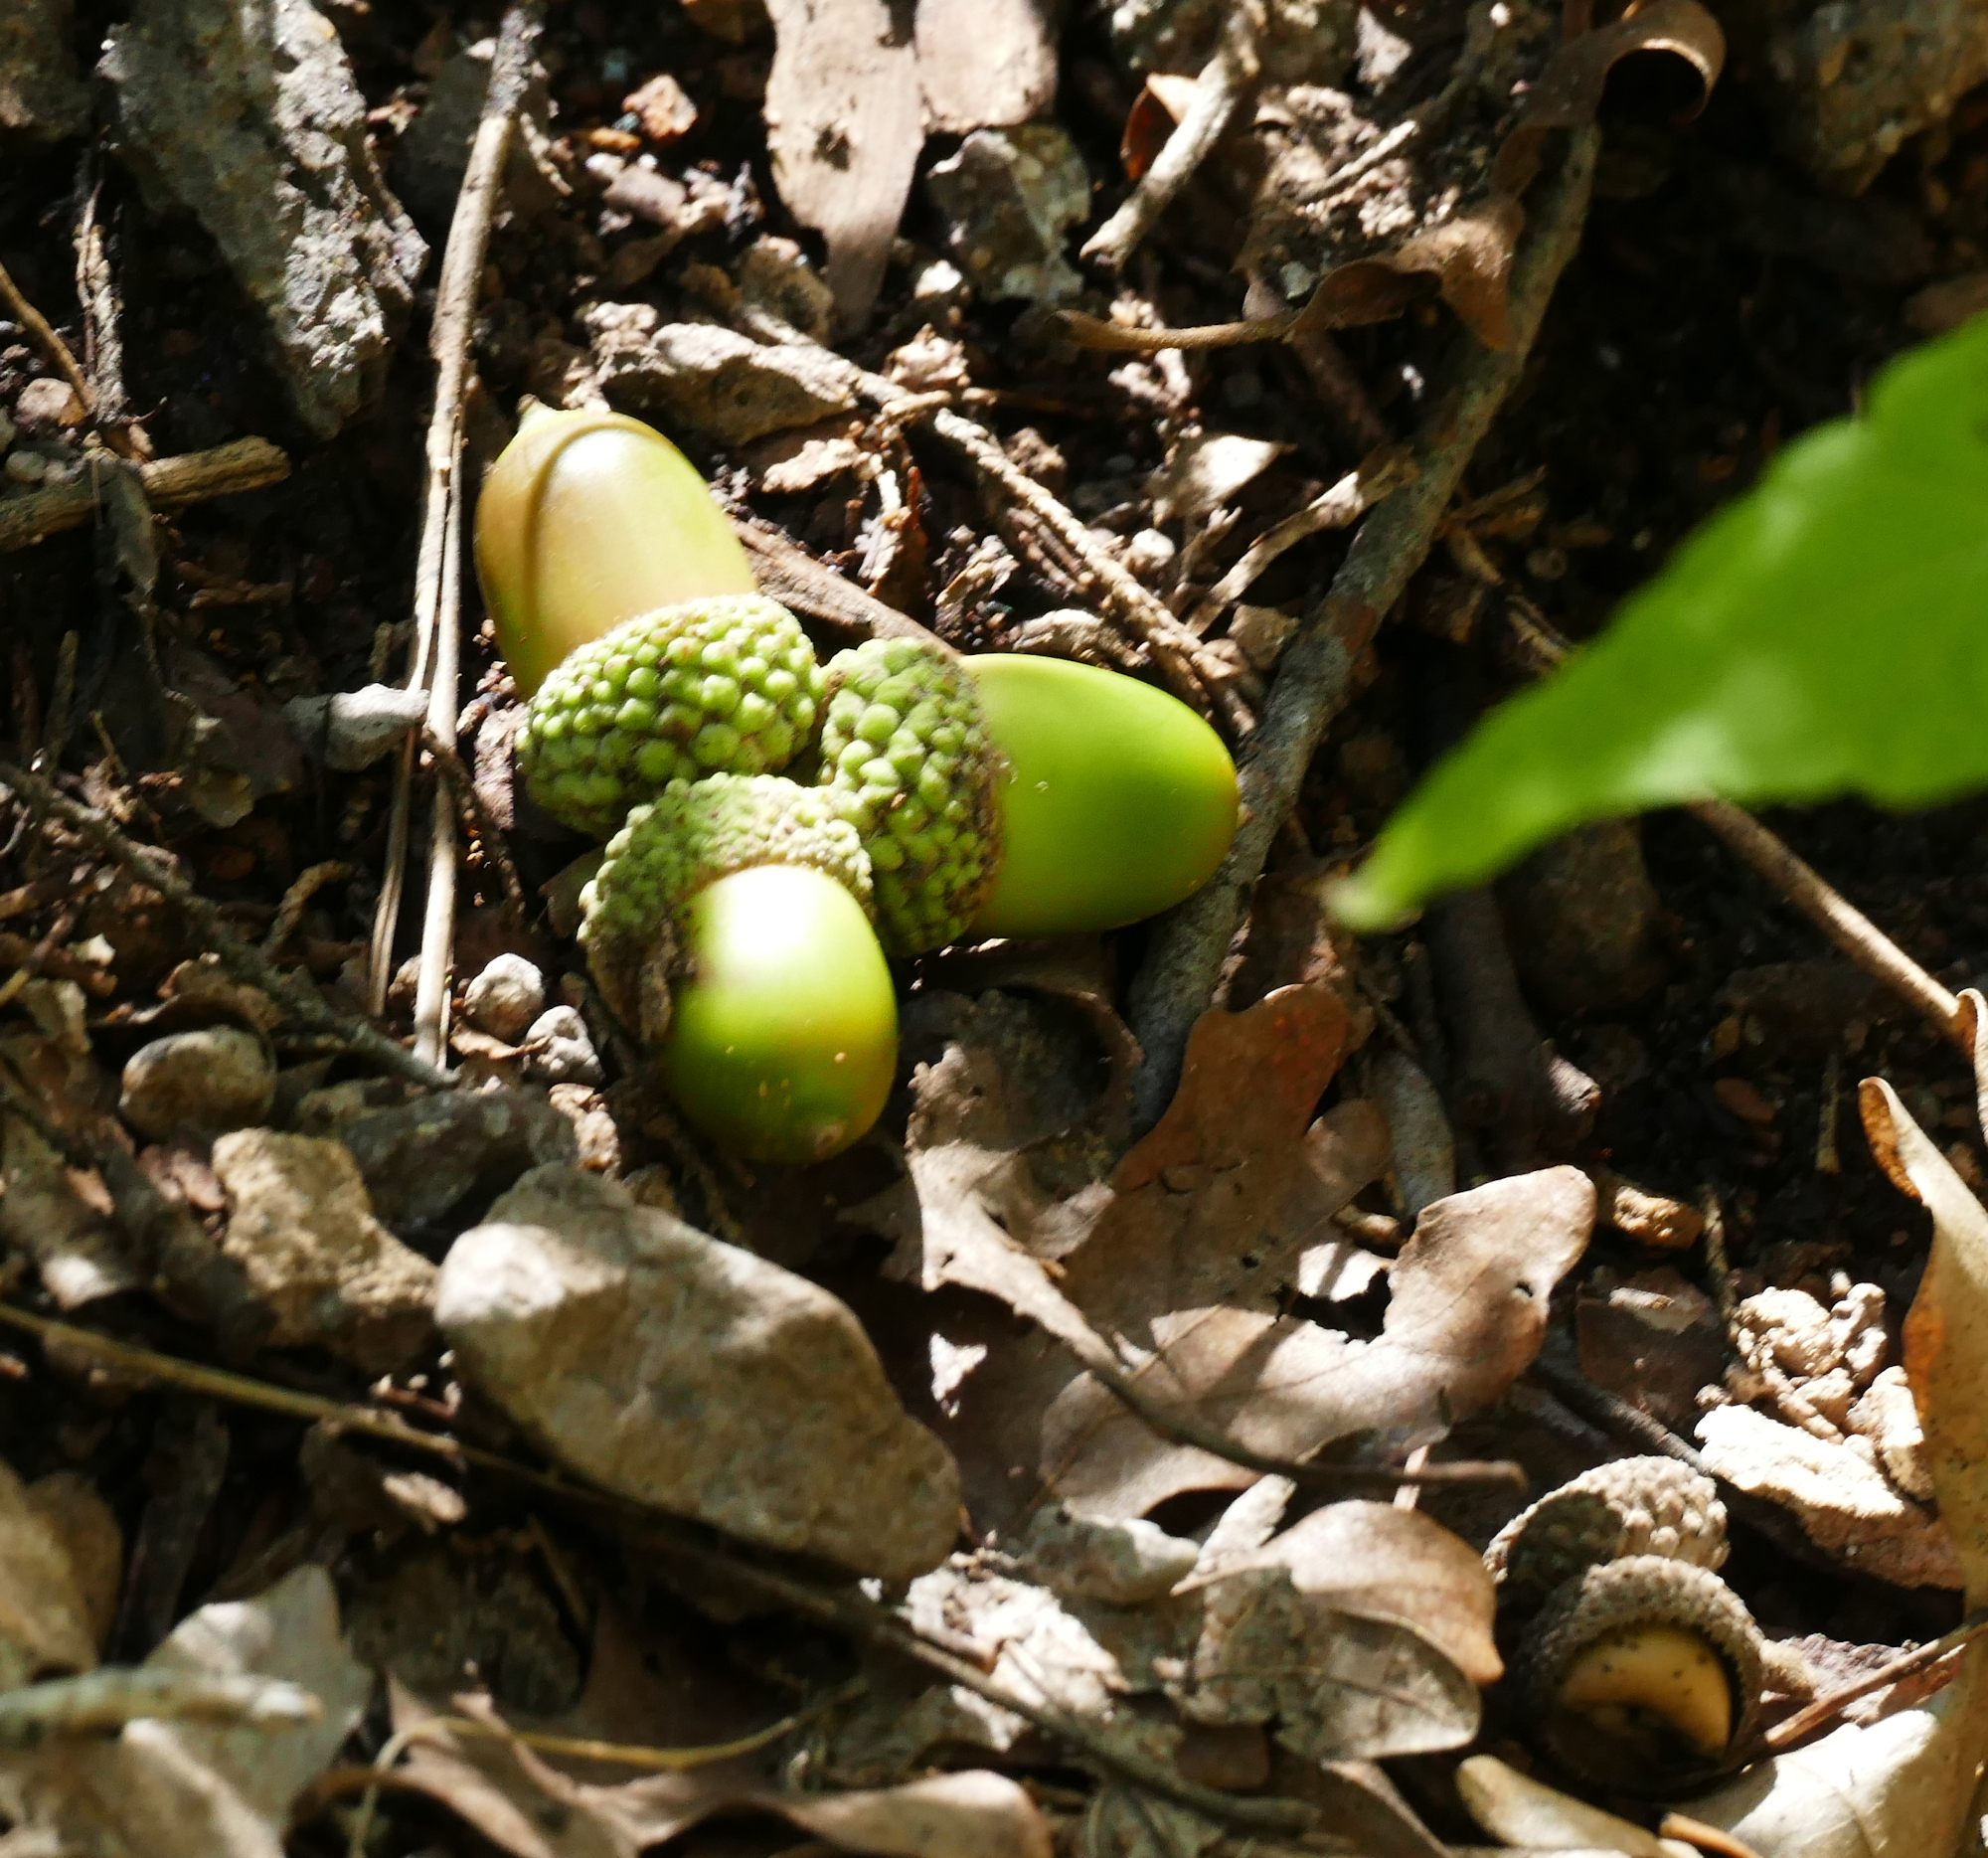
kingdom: Plantae
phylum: Tracheophyta
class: Magnoliopsida
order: Fagales
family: Fagaceae
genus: Quercus
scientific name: Quercus gambelii
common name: Gambel oak
